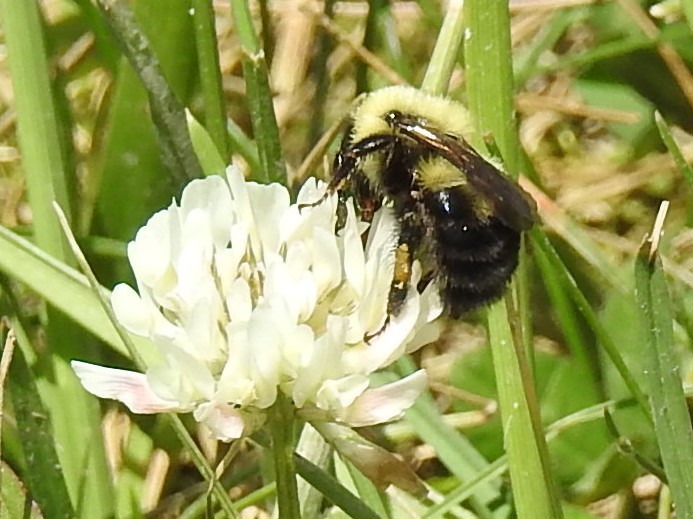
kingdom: Animalia
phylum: Arthropoda
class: Insecta
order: Hymenoptera
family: Apidae
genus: Bombus
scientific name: Bombus bimaculatus
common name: Two-spotted bumble bee
